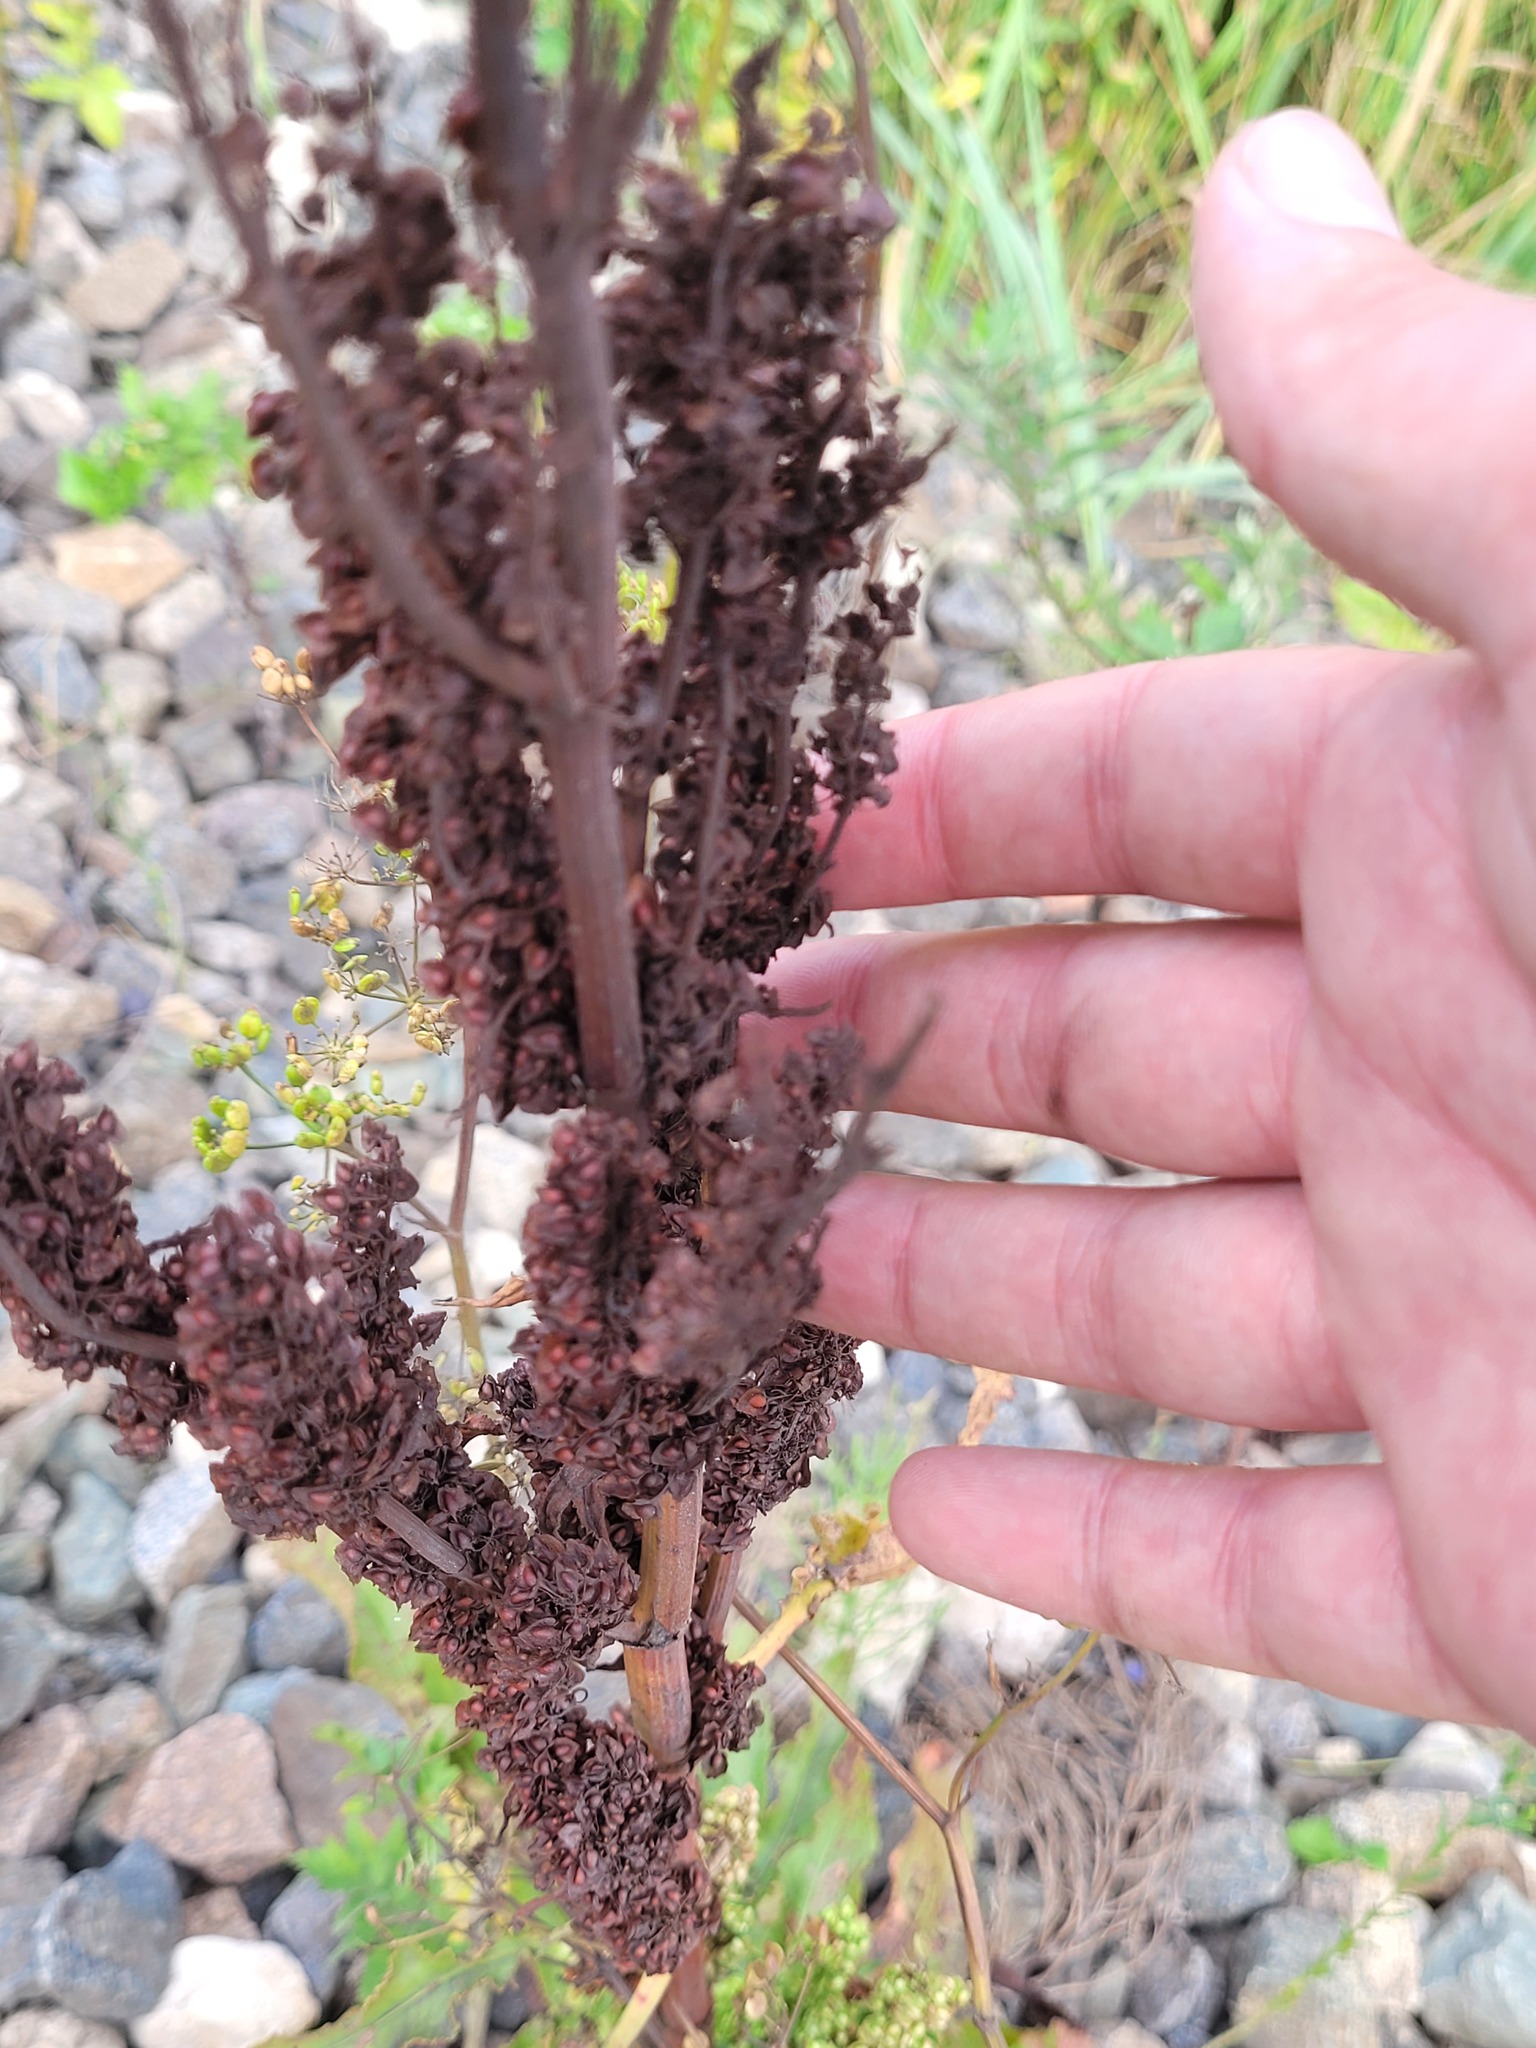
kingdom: Plantae
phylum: Tracheophyta
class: Magnoliopsida
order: Caryophyllales
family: Polygonaceae
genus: Rumex
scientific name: Rumex crispus
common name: Curled dock
